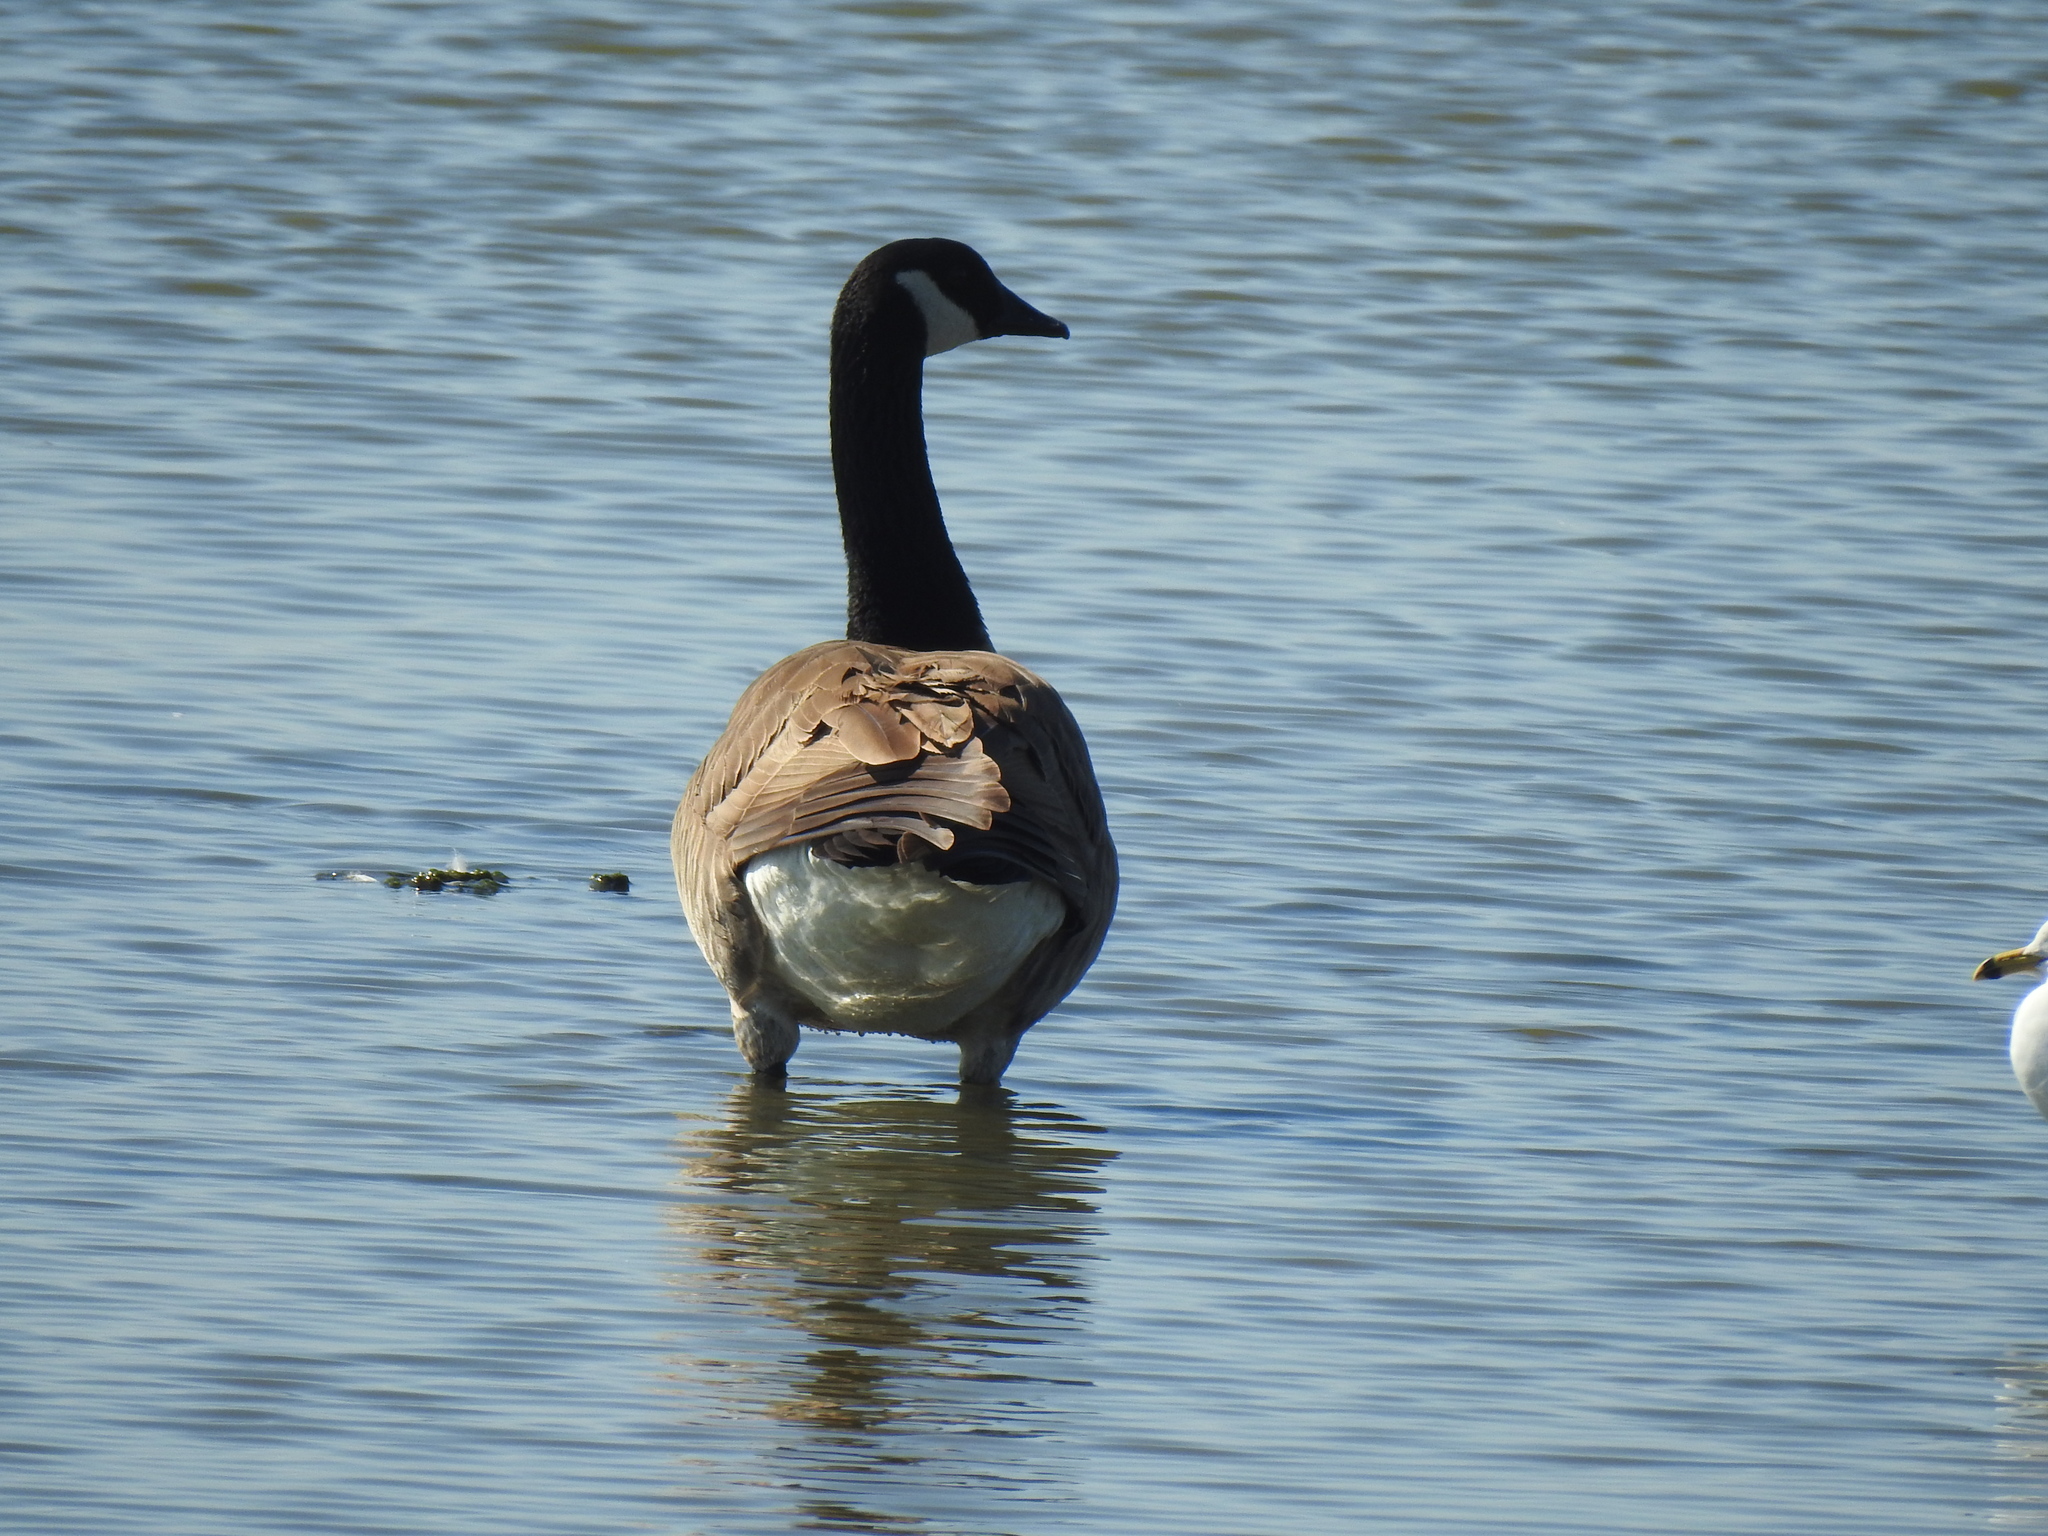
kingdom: Animalia
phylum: Chordata
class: Aves
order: Anseriformes
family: Anatidae
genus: Branta
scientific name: Branta canadensis
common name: Canada goose
